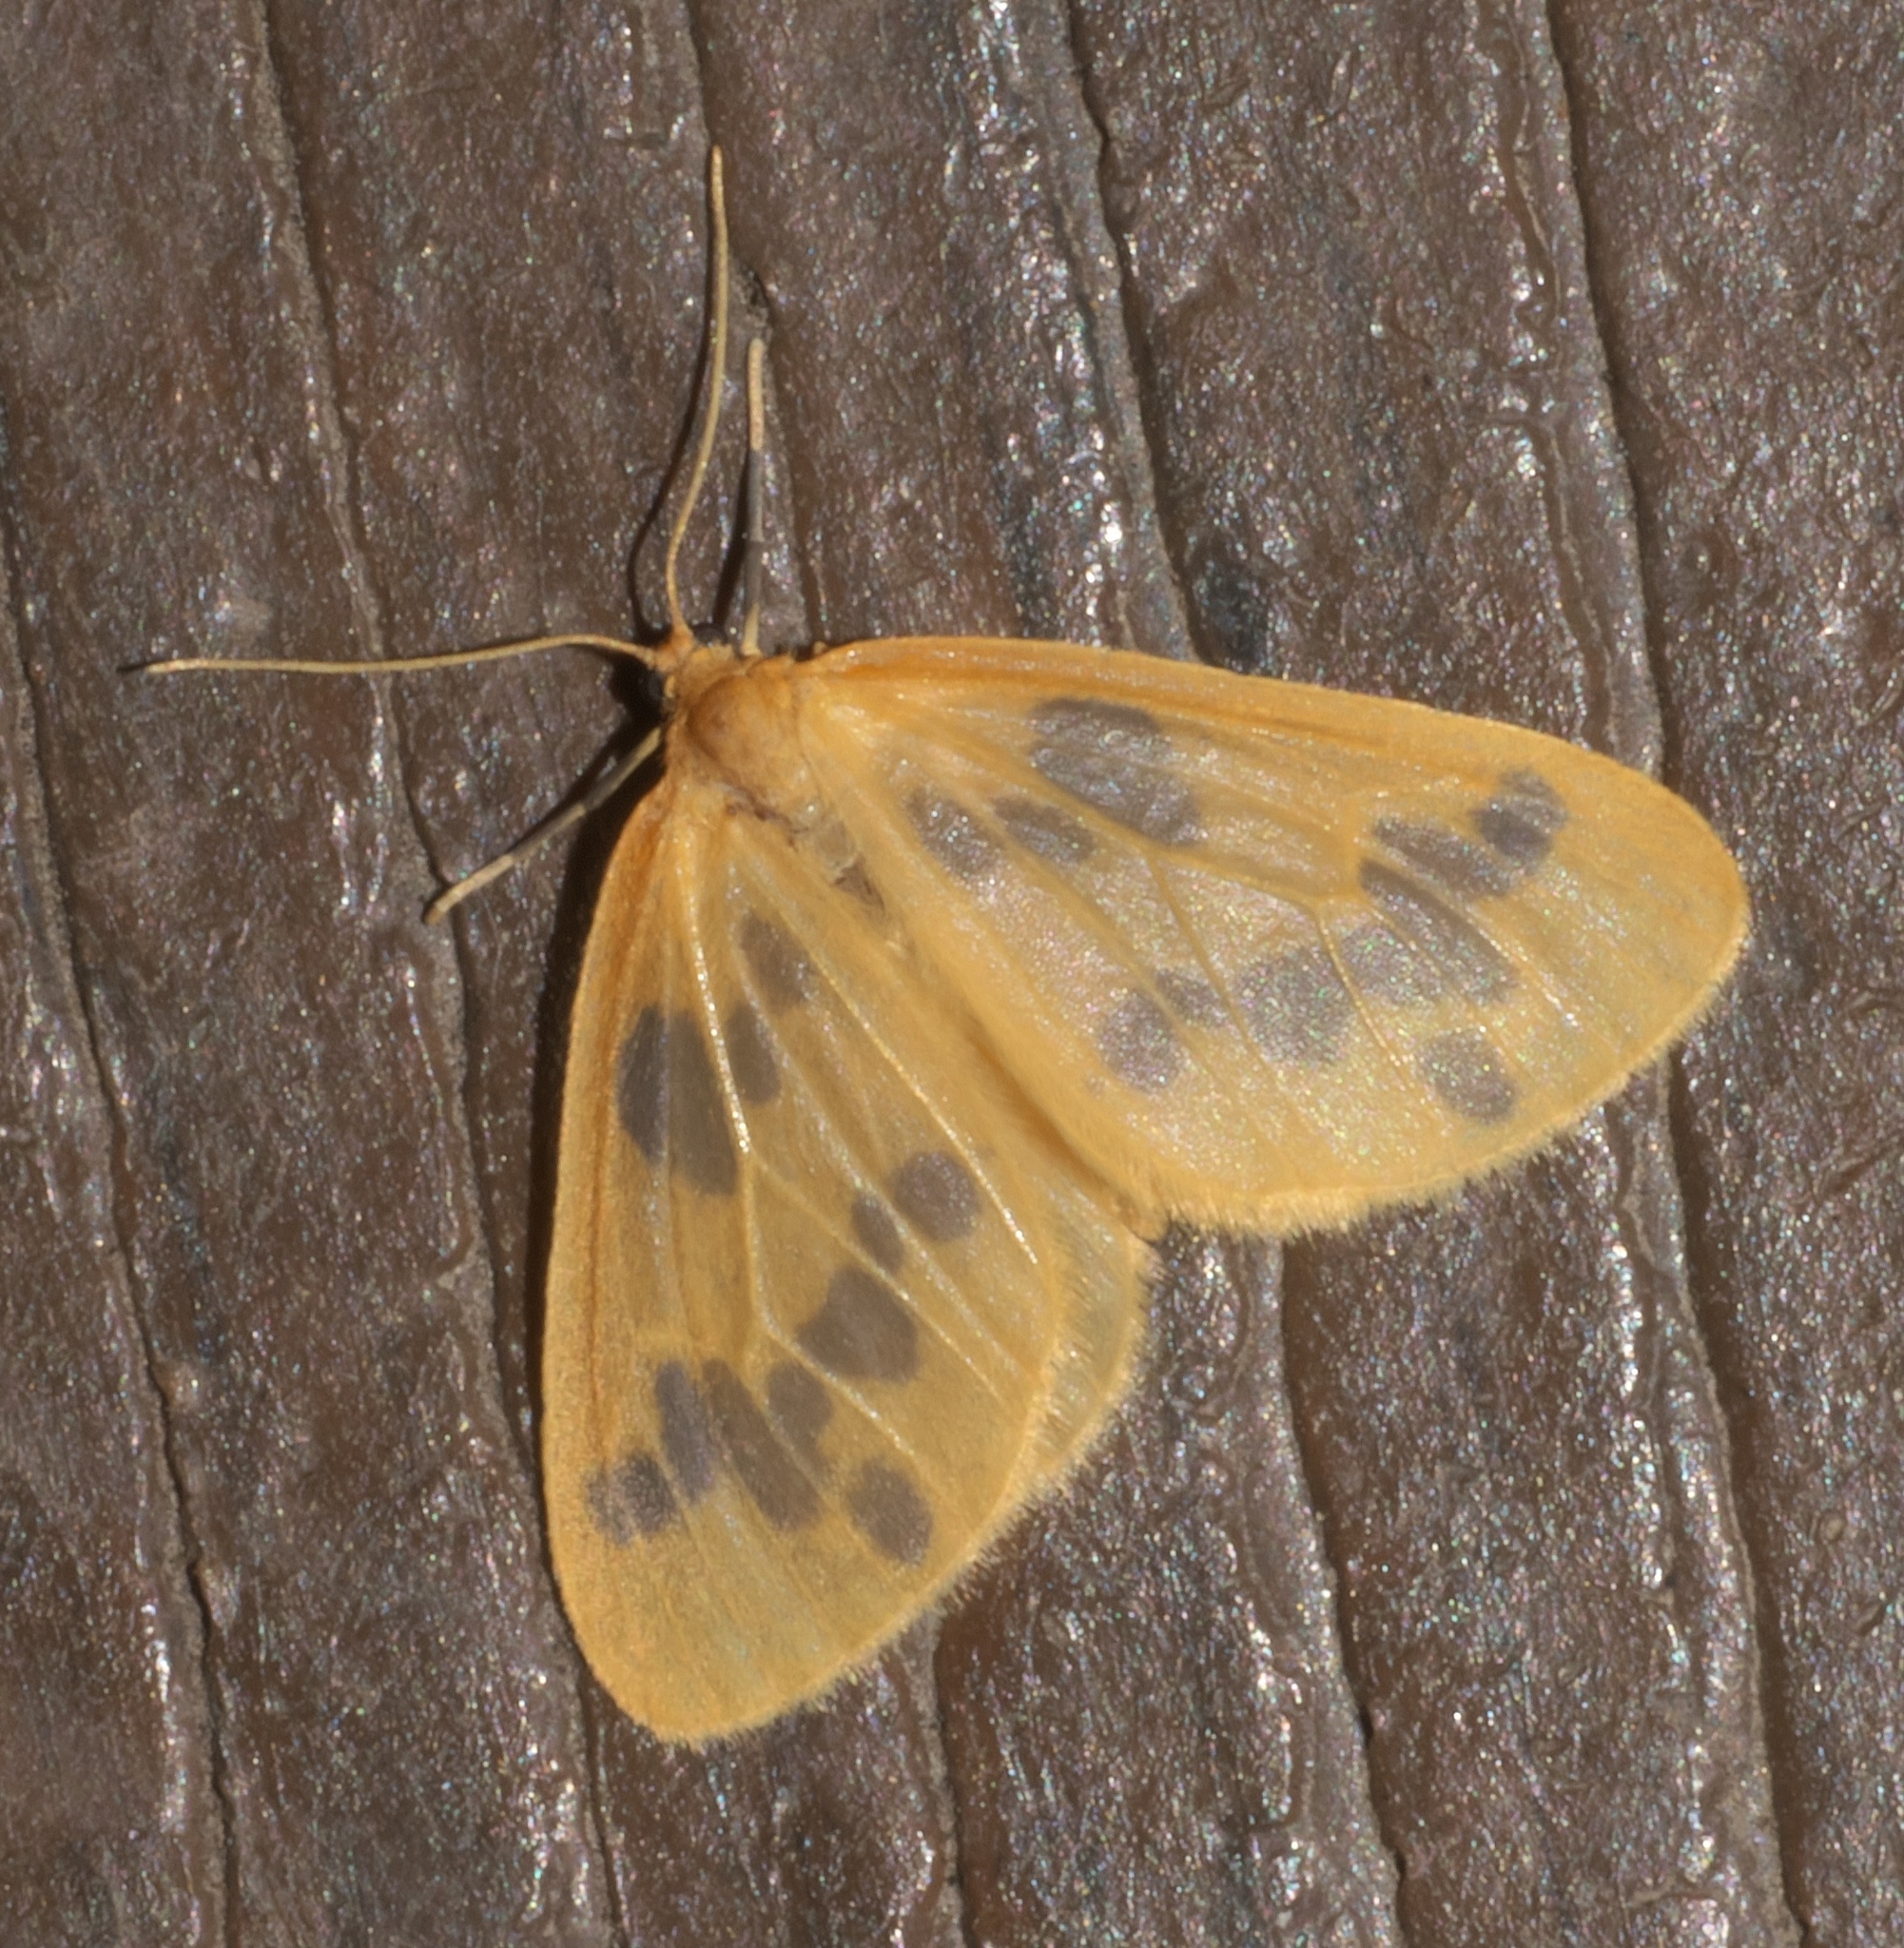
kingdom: Animalia
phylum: Arthropoda
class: Insecta
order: Lepidoptera
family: Geometridae
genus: Eubaphe
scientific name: Eubaphe mendica
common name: Beggar
